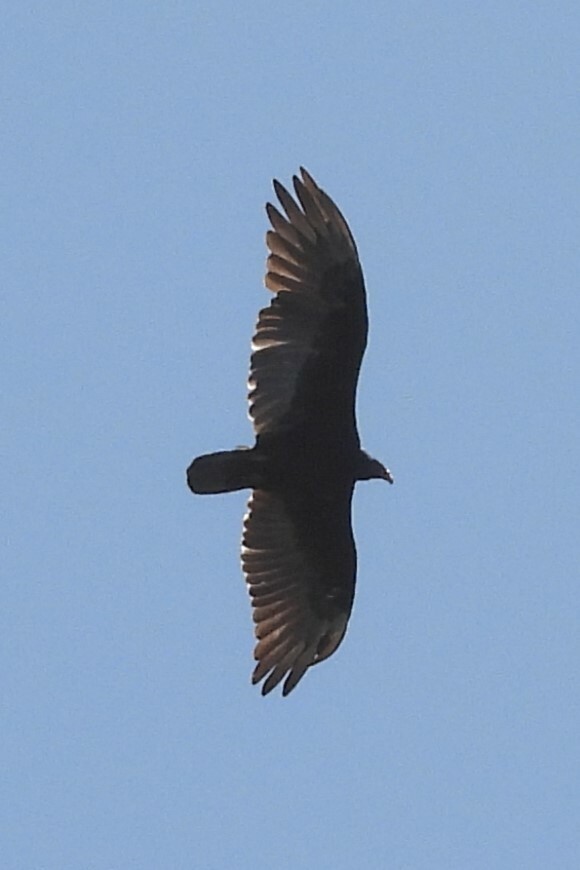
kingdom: Animalia
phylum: Chordata
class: Aves
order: Accipitriformes
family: Cathartidae
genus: Cathartes
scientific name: Cathartes aura
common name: Turkey vulture
